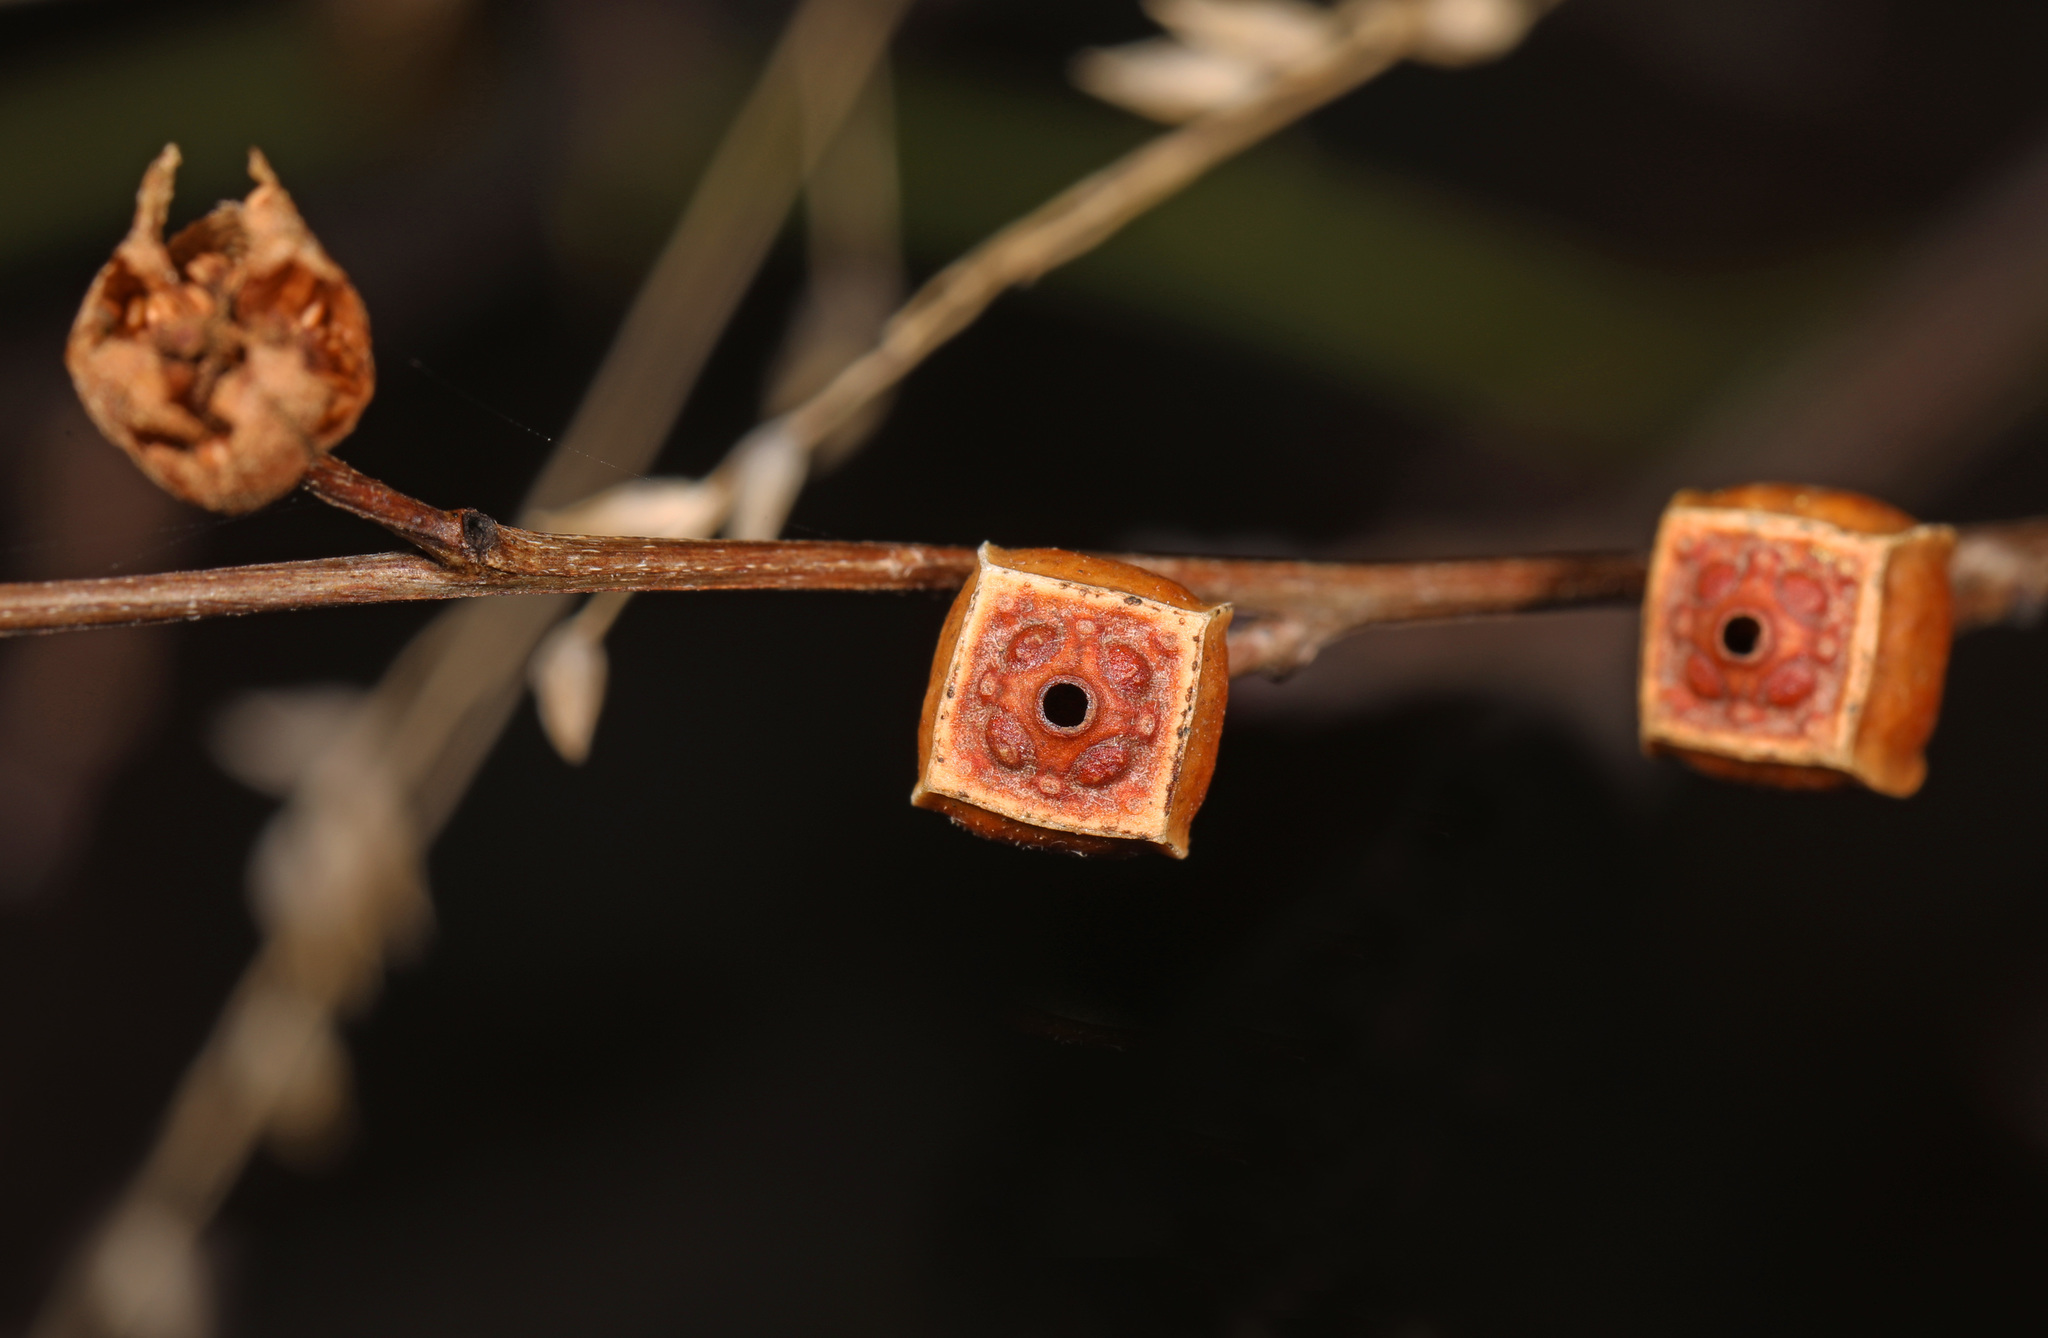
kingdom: Plantae
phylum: Tracheophyta
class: Magnoliopsida
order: Myrtales
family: Onagraceae
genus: Ludwigia
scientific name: Ludwigia alternifolia
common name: Rattlebox
